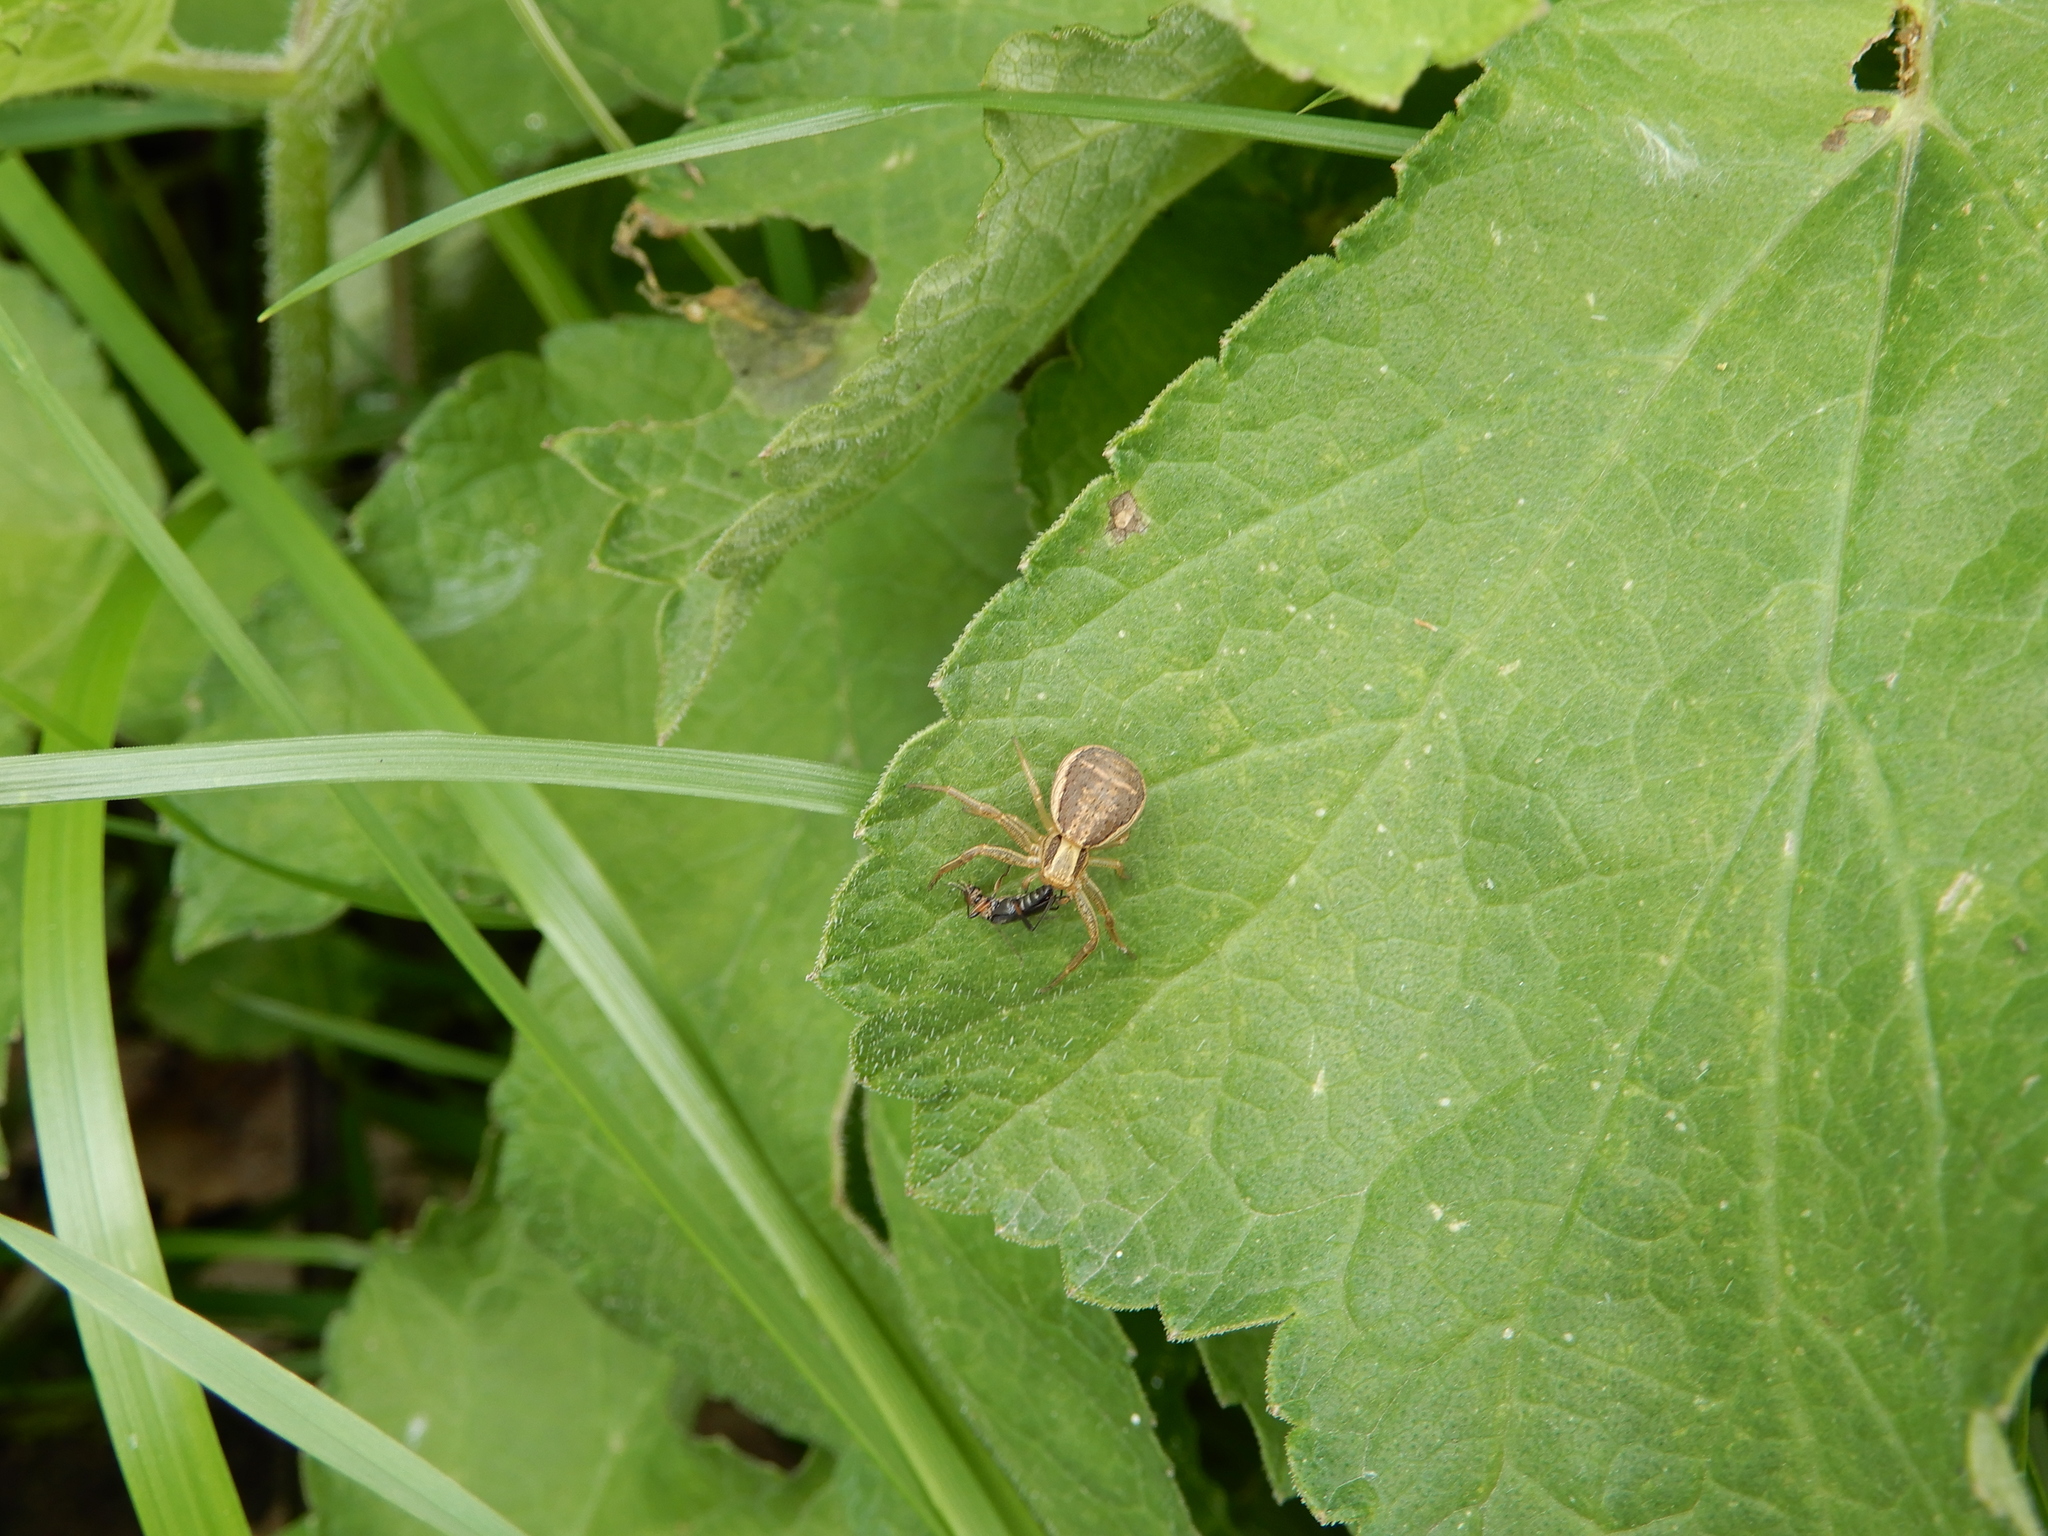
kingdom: Animalia
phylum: Arthropoda
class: Arachnida
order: Araneae
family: Thomisidae
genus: Xysticus
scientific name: Xysticus ulmi
